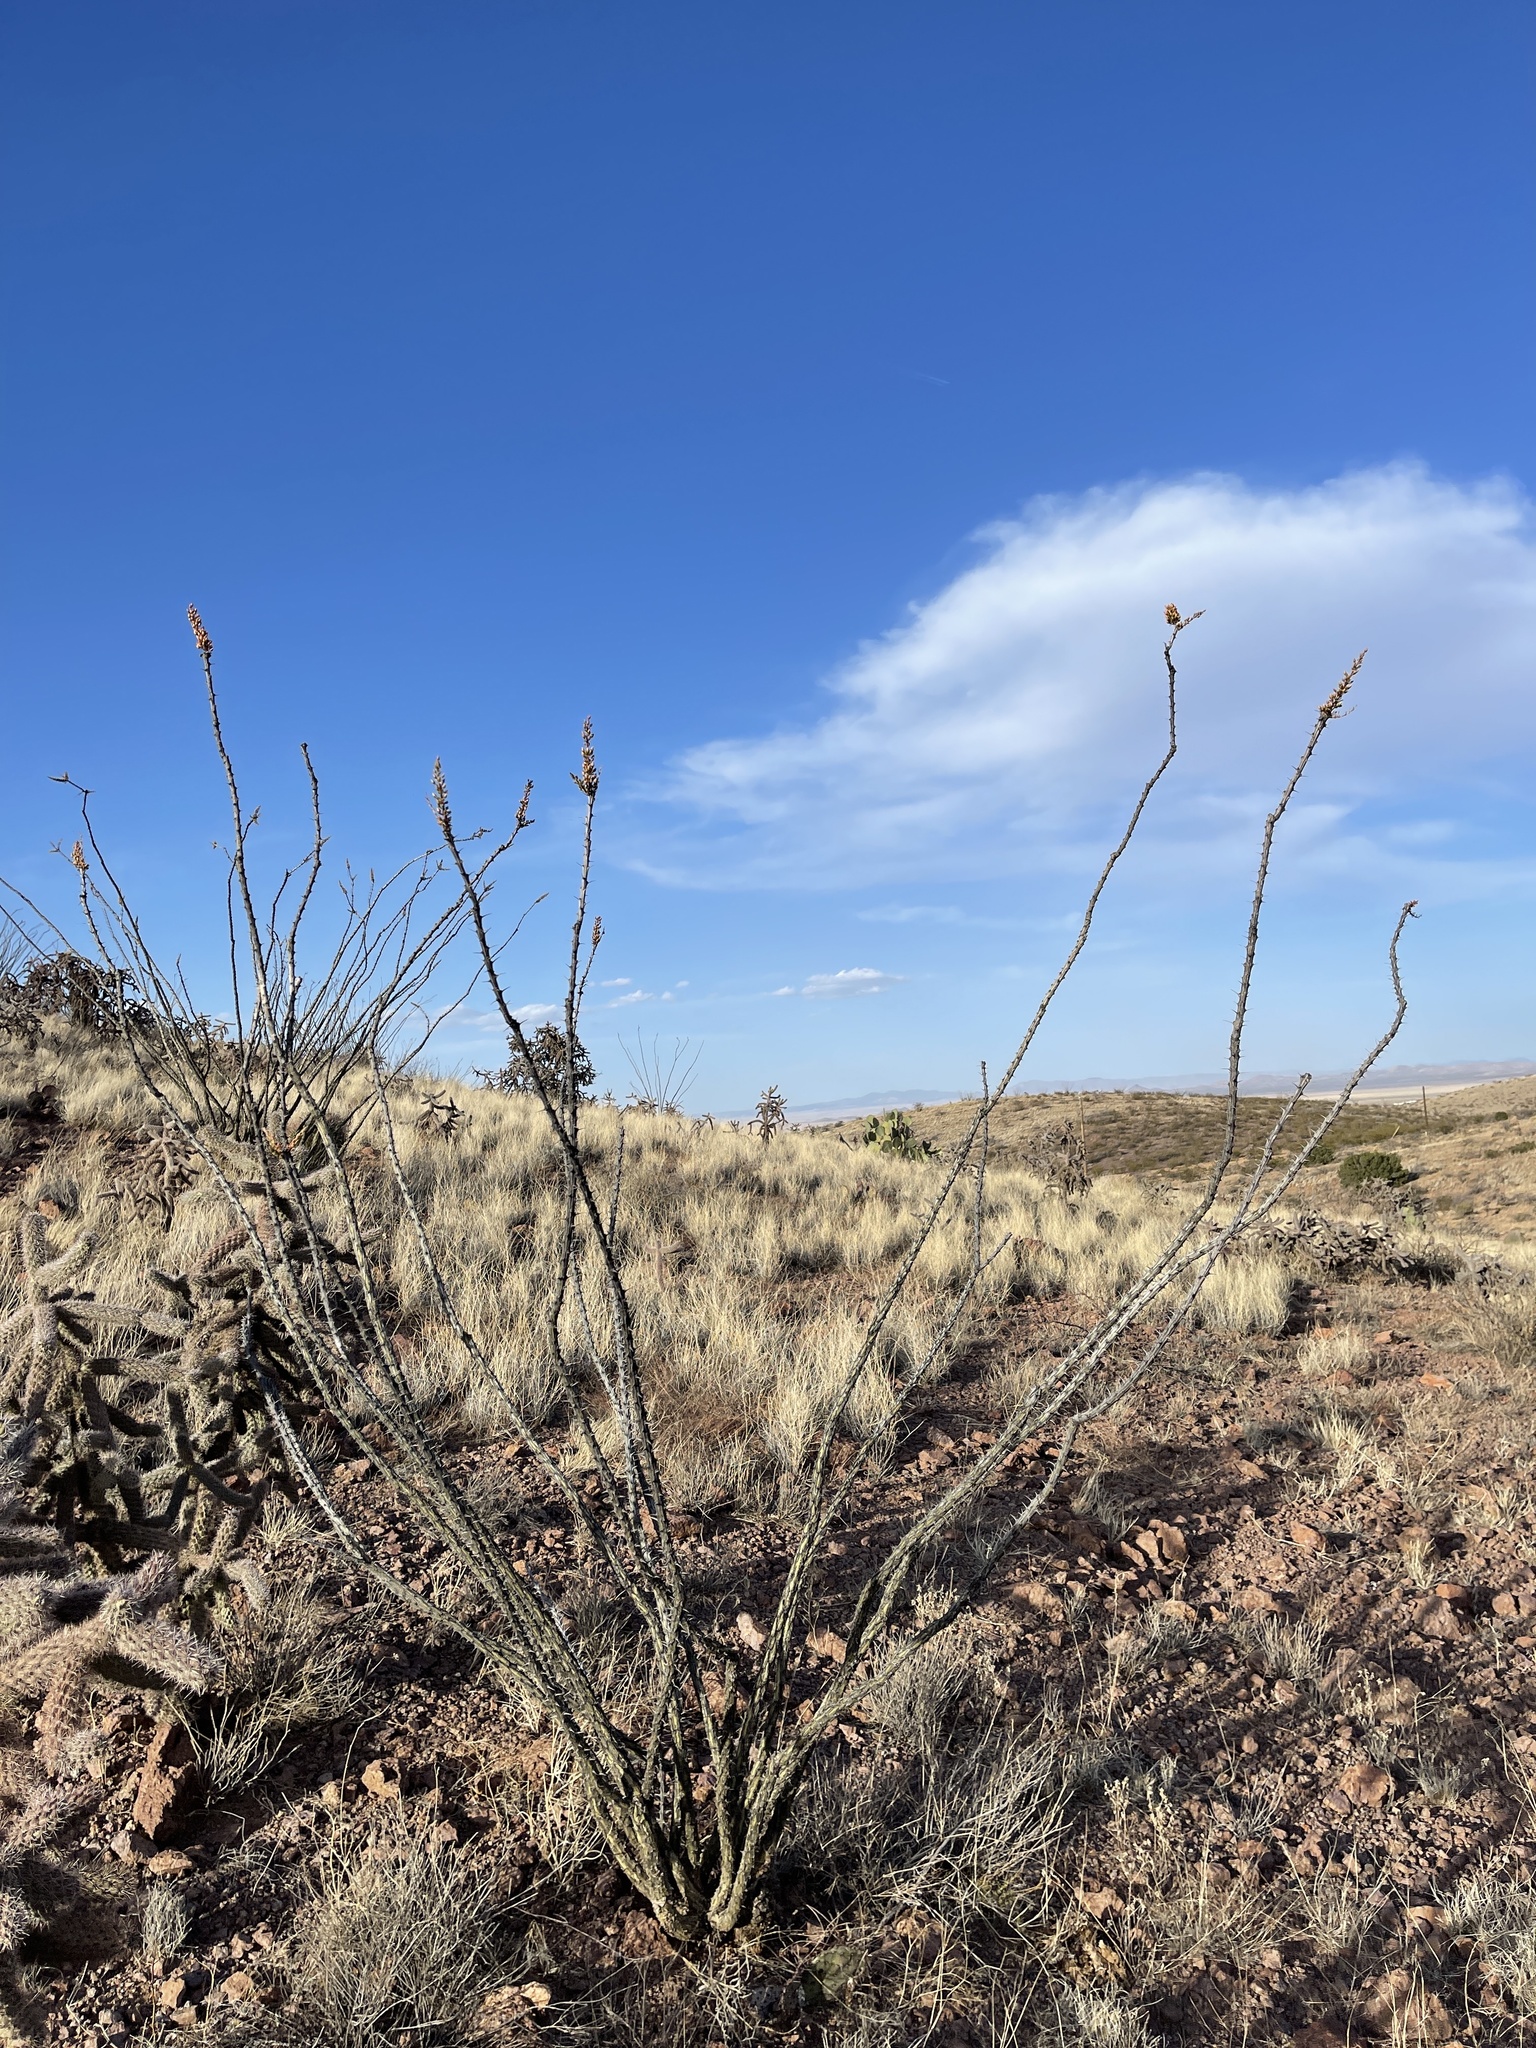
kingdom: Plantae
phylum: Tracheophyta
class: Magnoliopsida
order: Ericales
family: Fouquieriaceae
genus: Fouquieria
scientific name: Fouquieria splendens
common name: Vine-cactus
